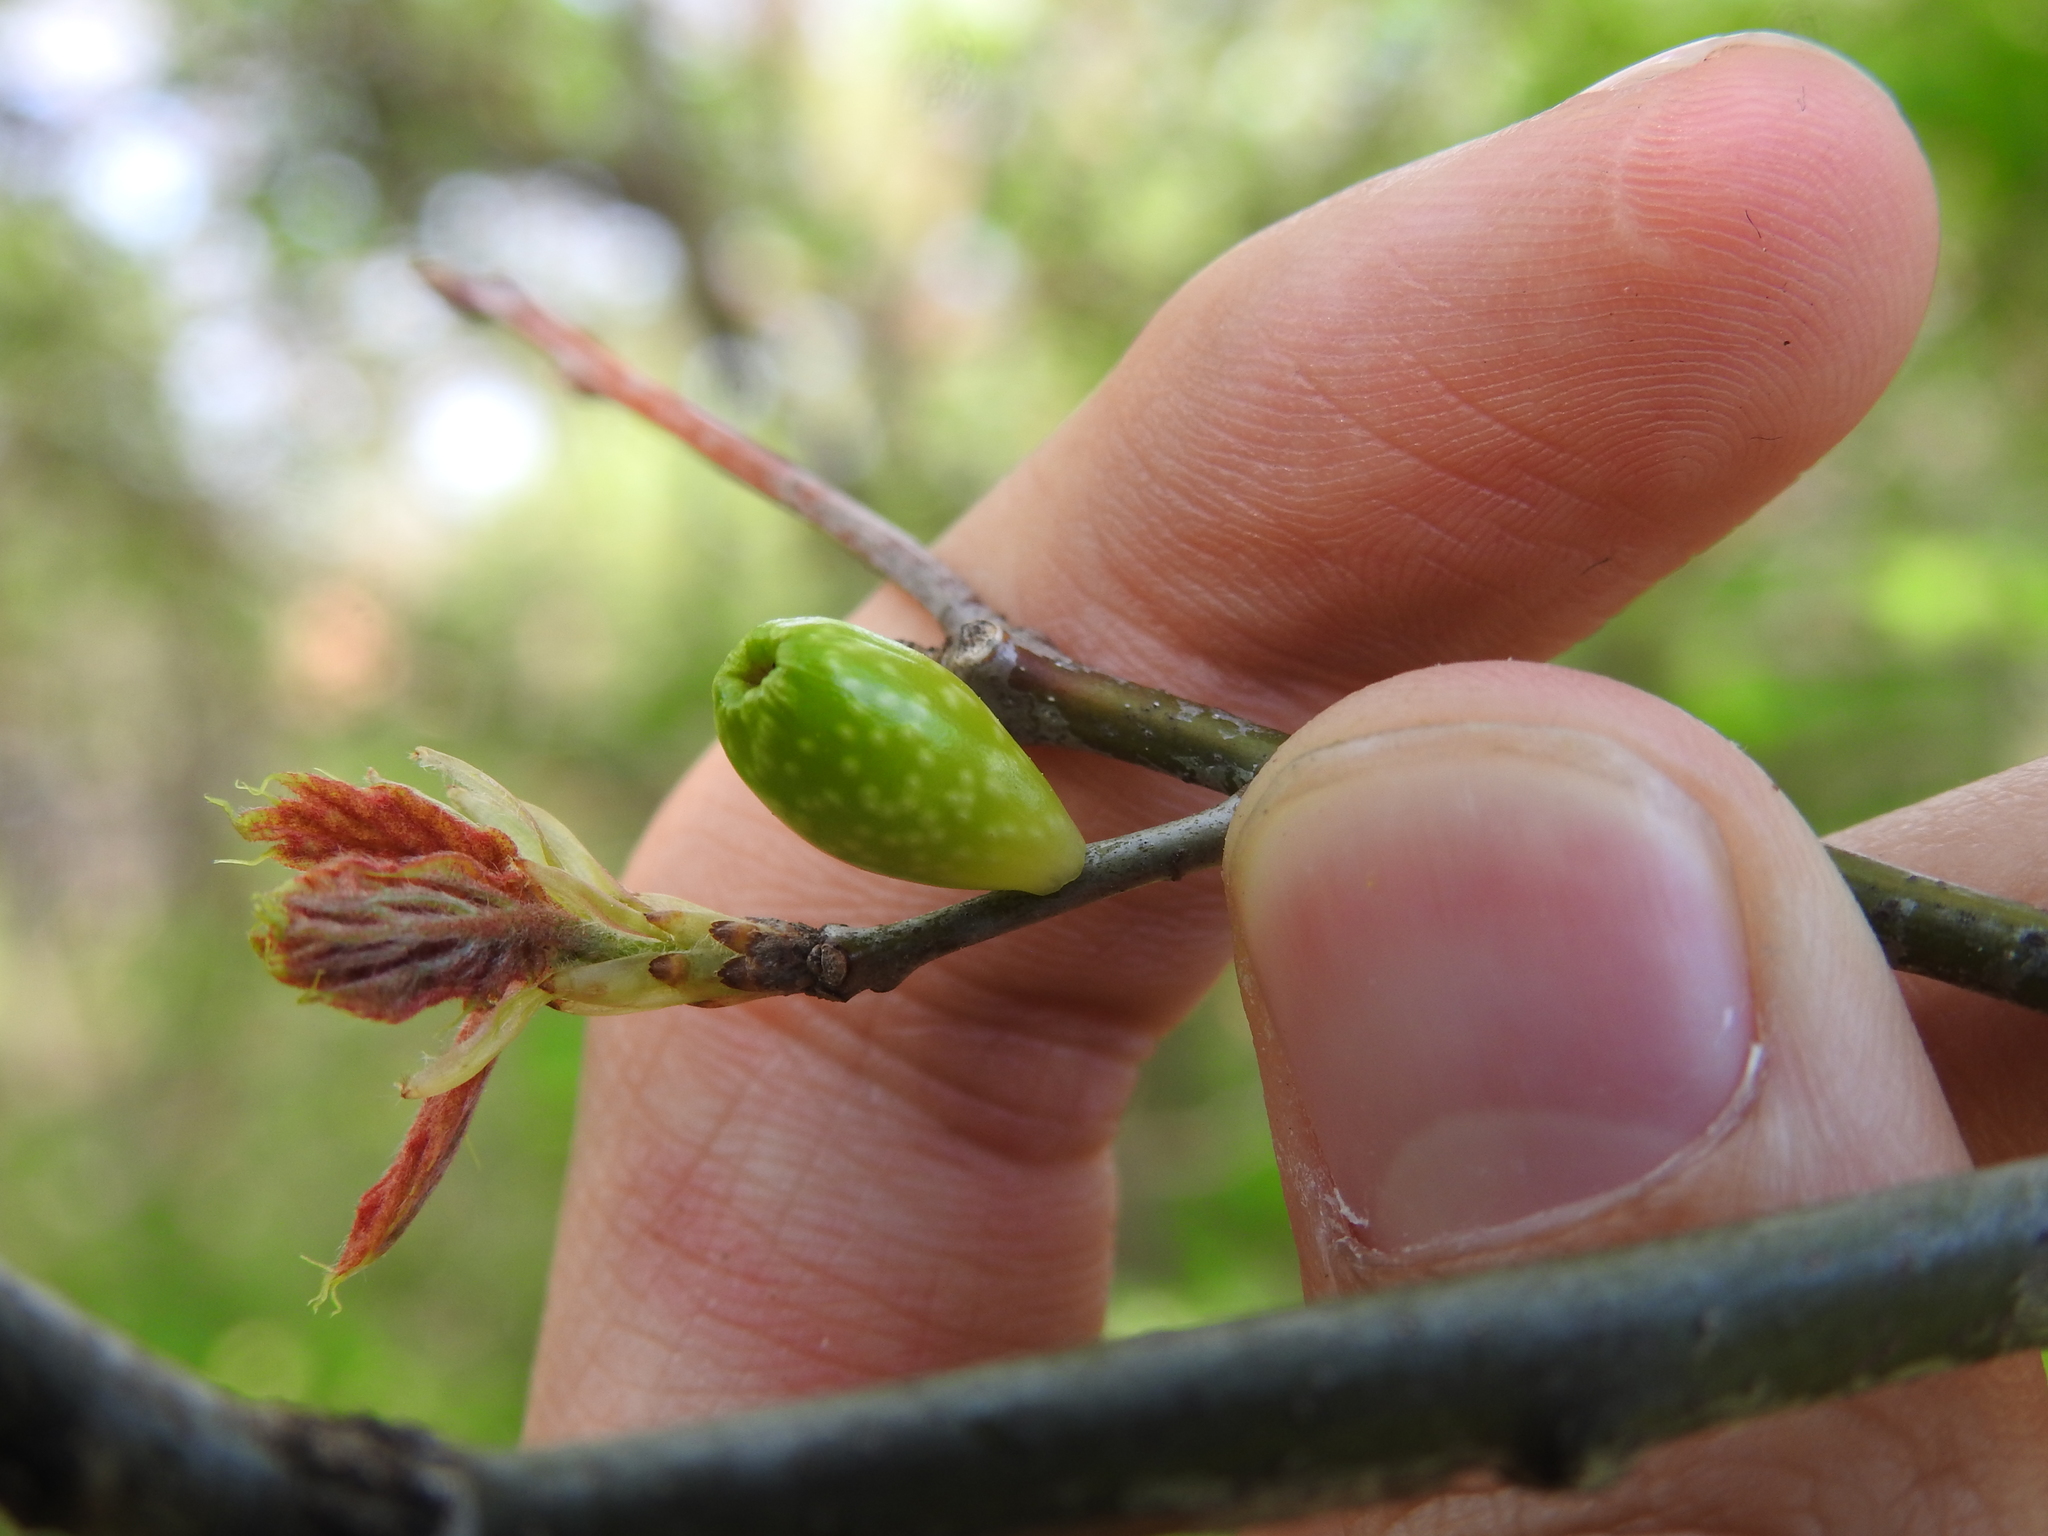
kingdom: Animalia
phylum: Arthropoda
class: Insecta
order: Hymenoptera
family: Cynipidae
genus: Amphibolips
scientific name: Amphibolips
